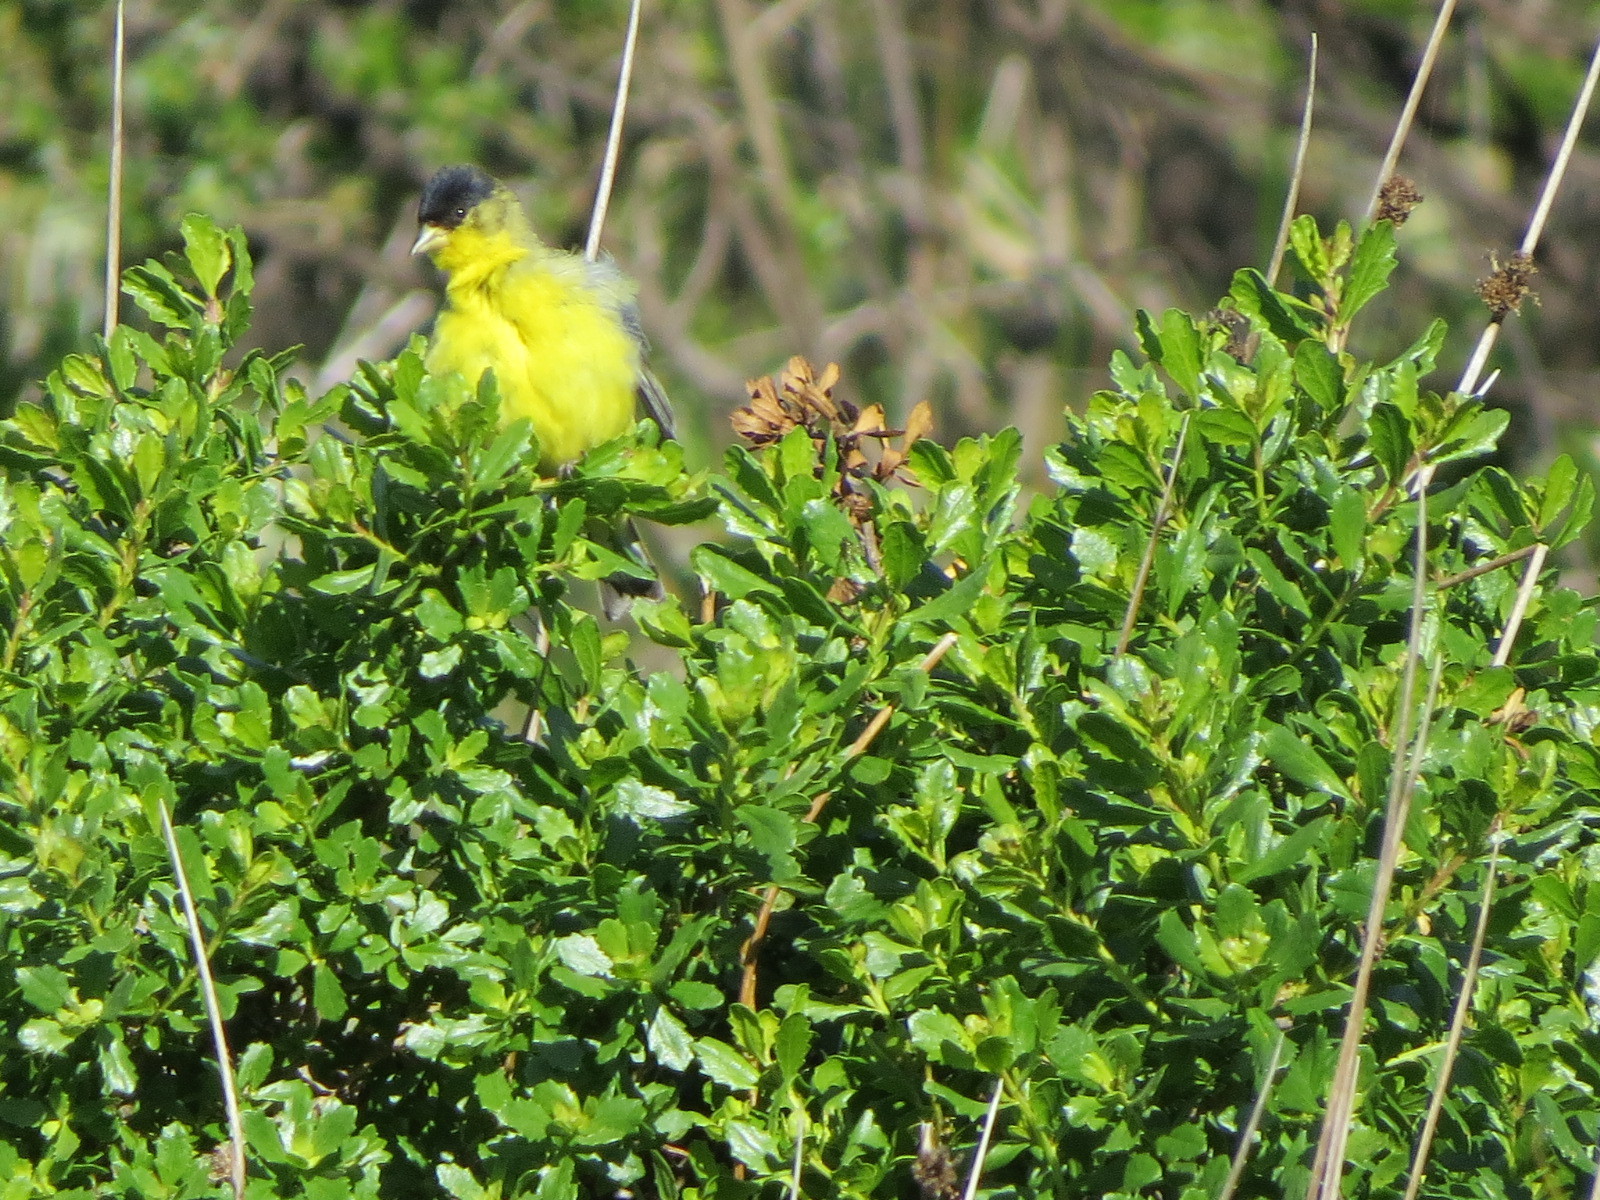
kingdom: Animalia
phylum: Chordata
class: Aves
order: Passeriformes
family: Fringillidae
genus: Spinus
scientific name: Spinus psaltria
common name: Lesser goldfinch
